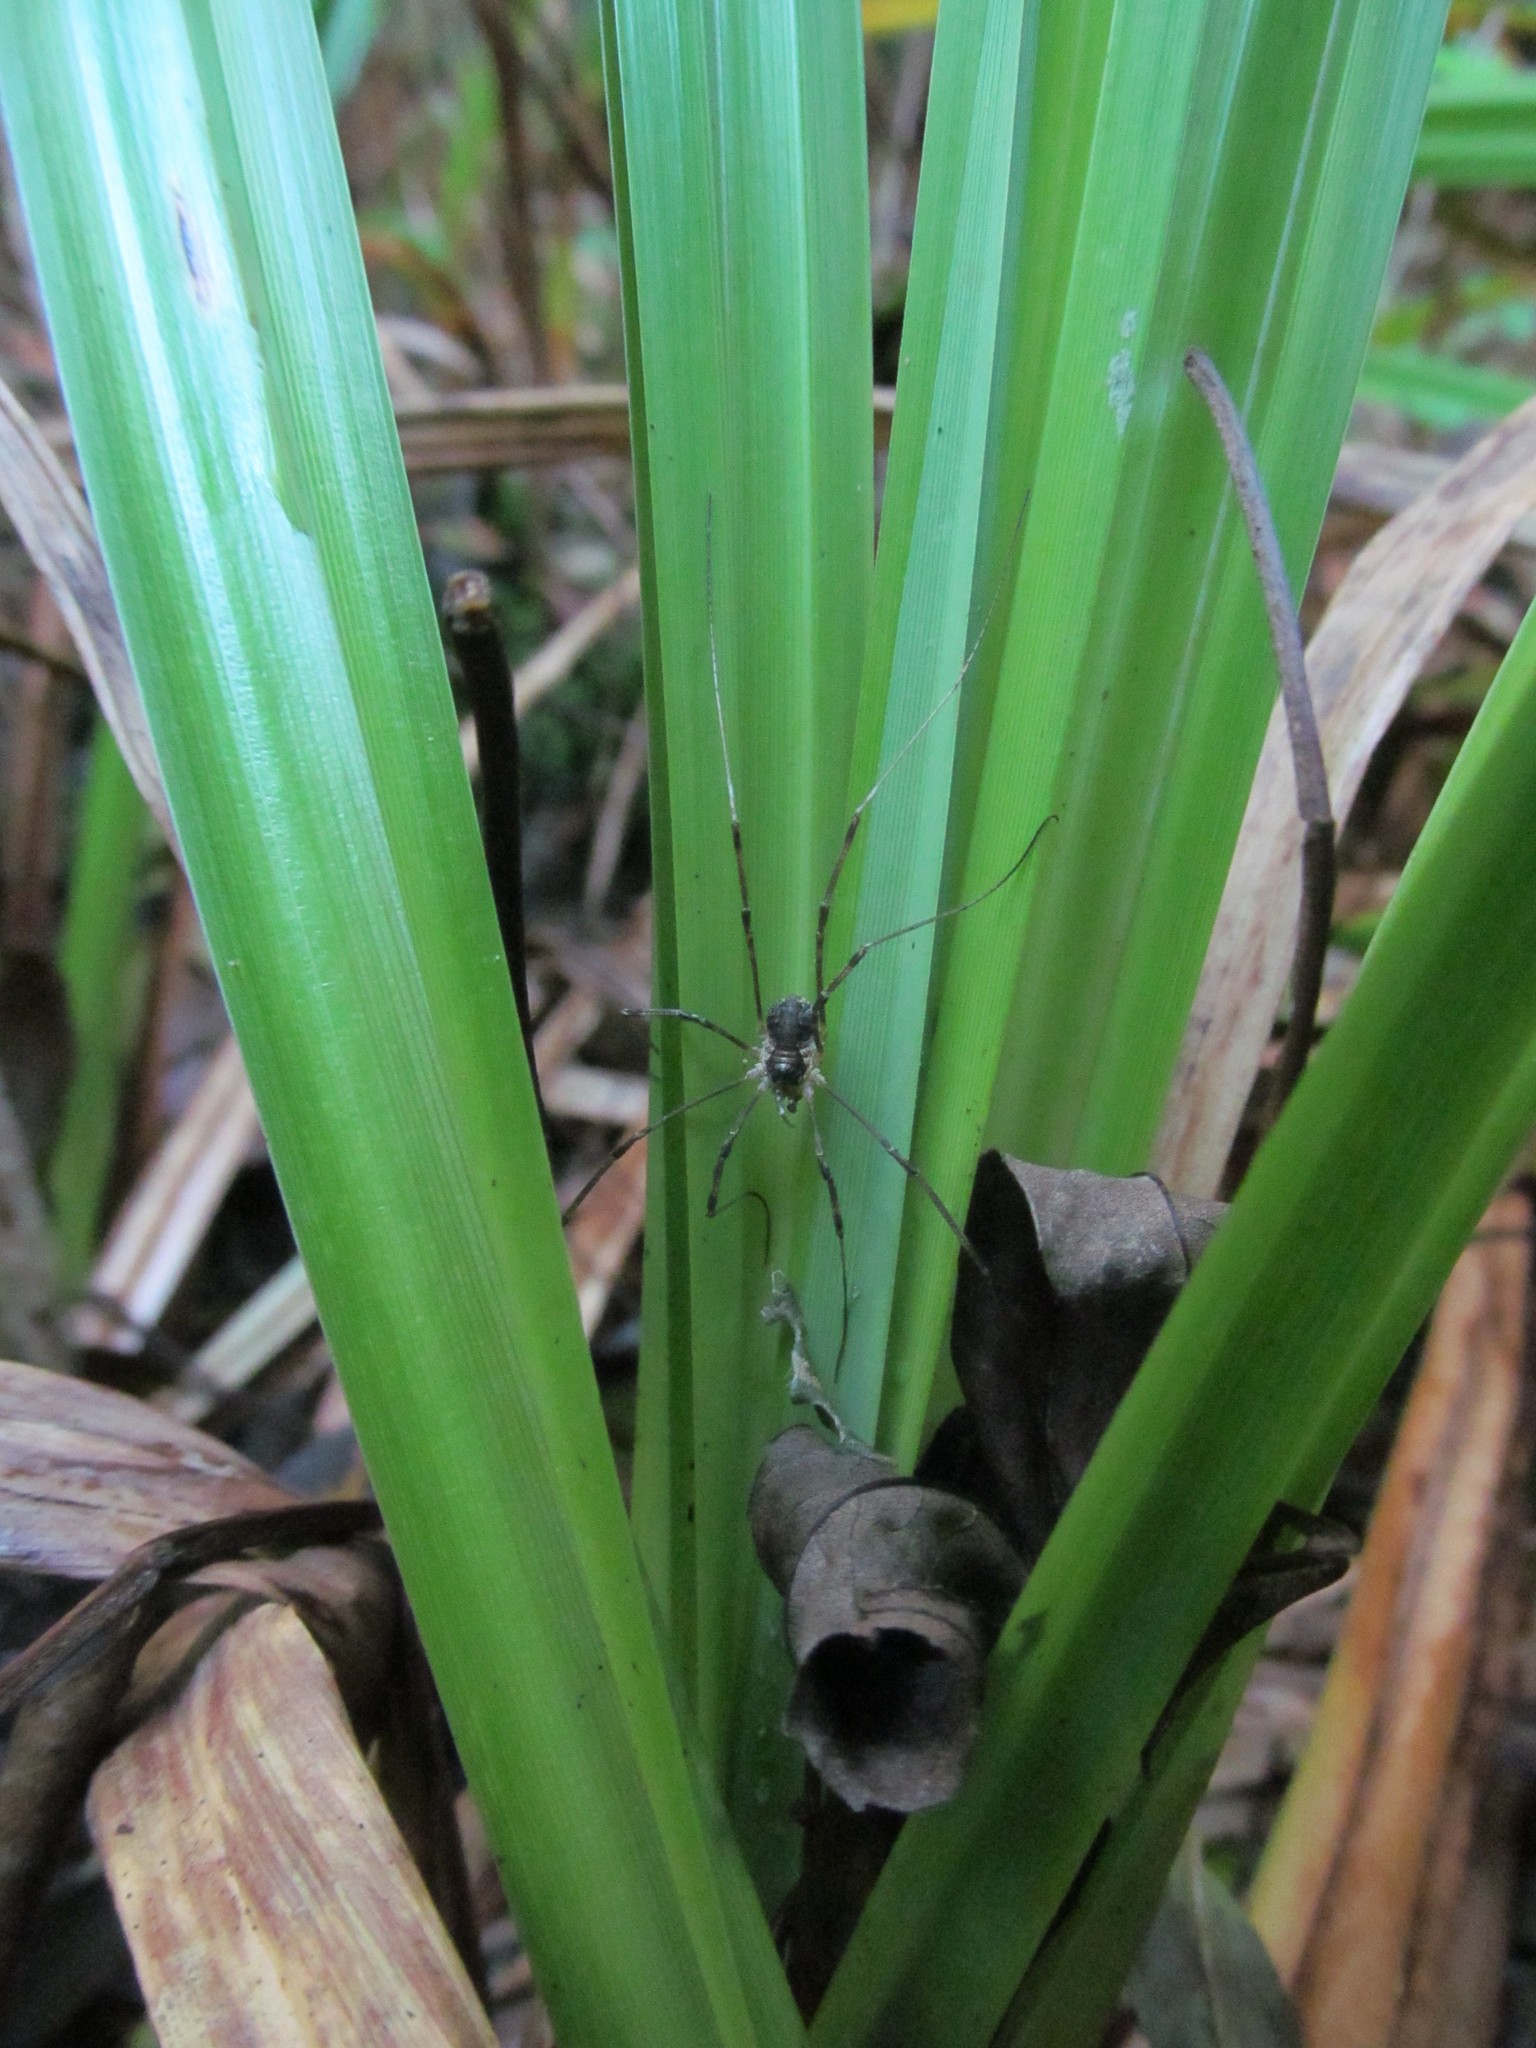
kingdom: Animalia
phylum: Arthropoda
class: Arachnida
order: Opiliones
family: Phalangiidae
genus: Mitopus
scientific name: Mitopus morio
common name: Saddleback harvestman
